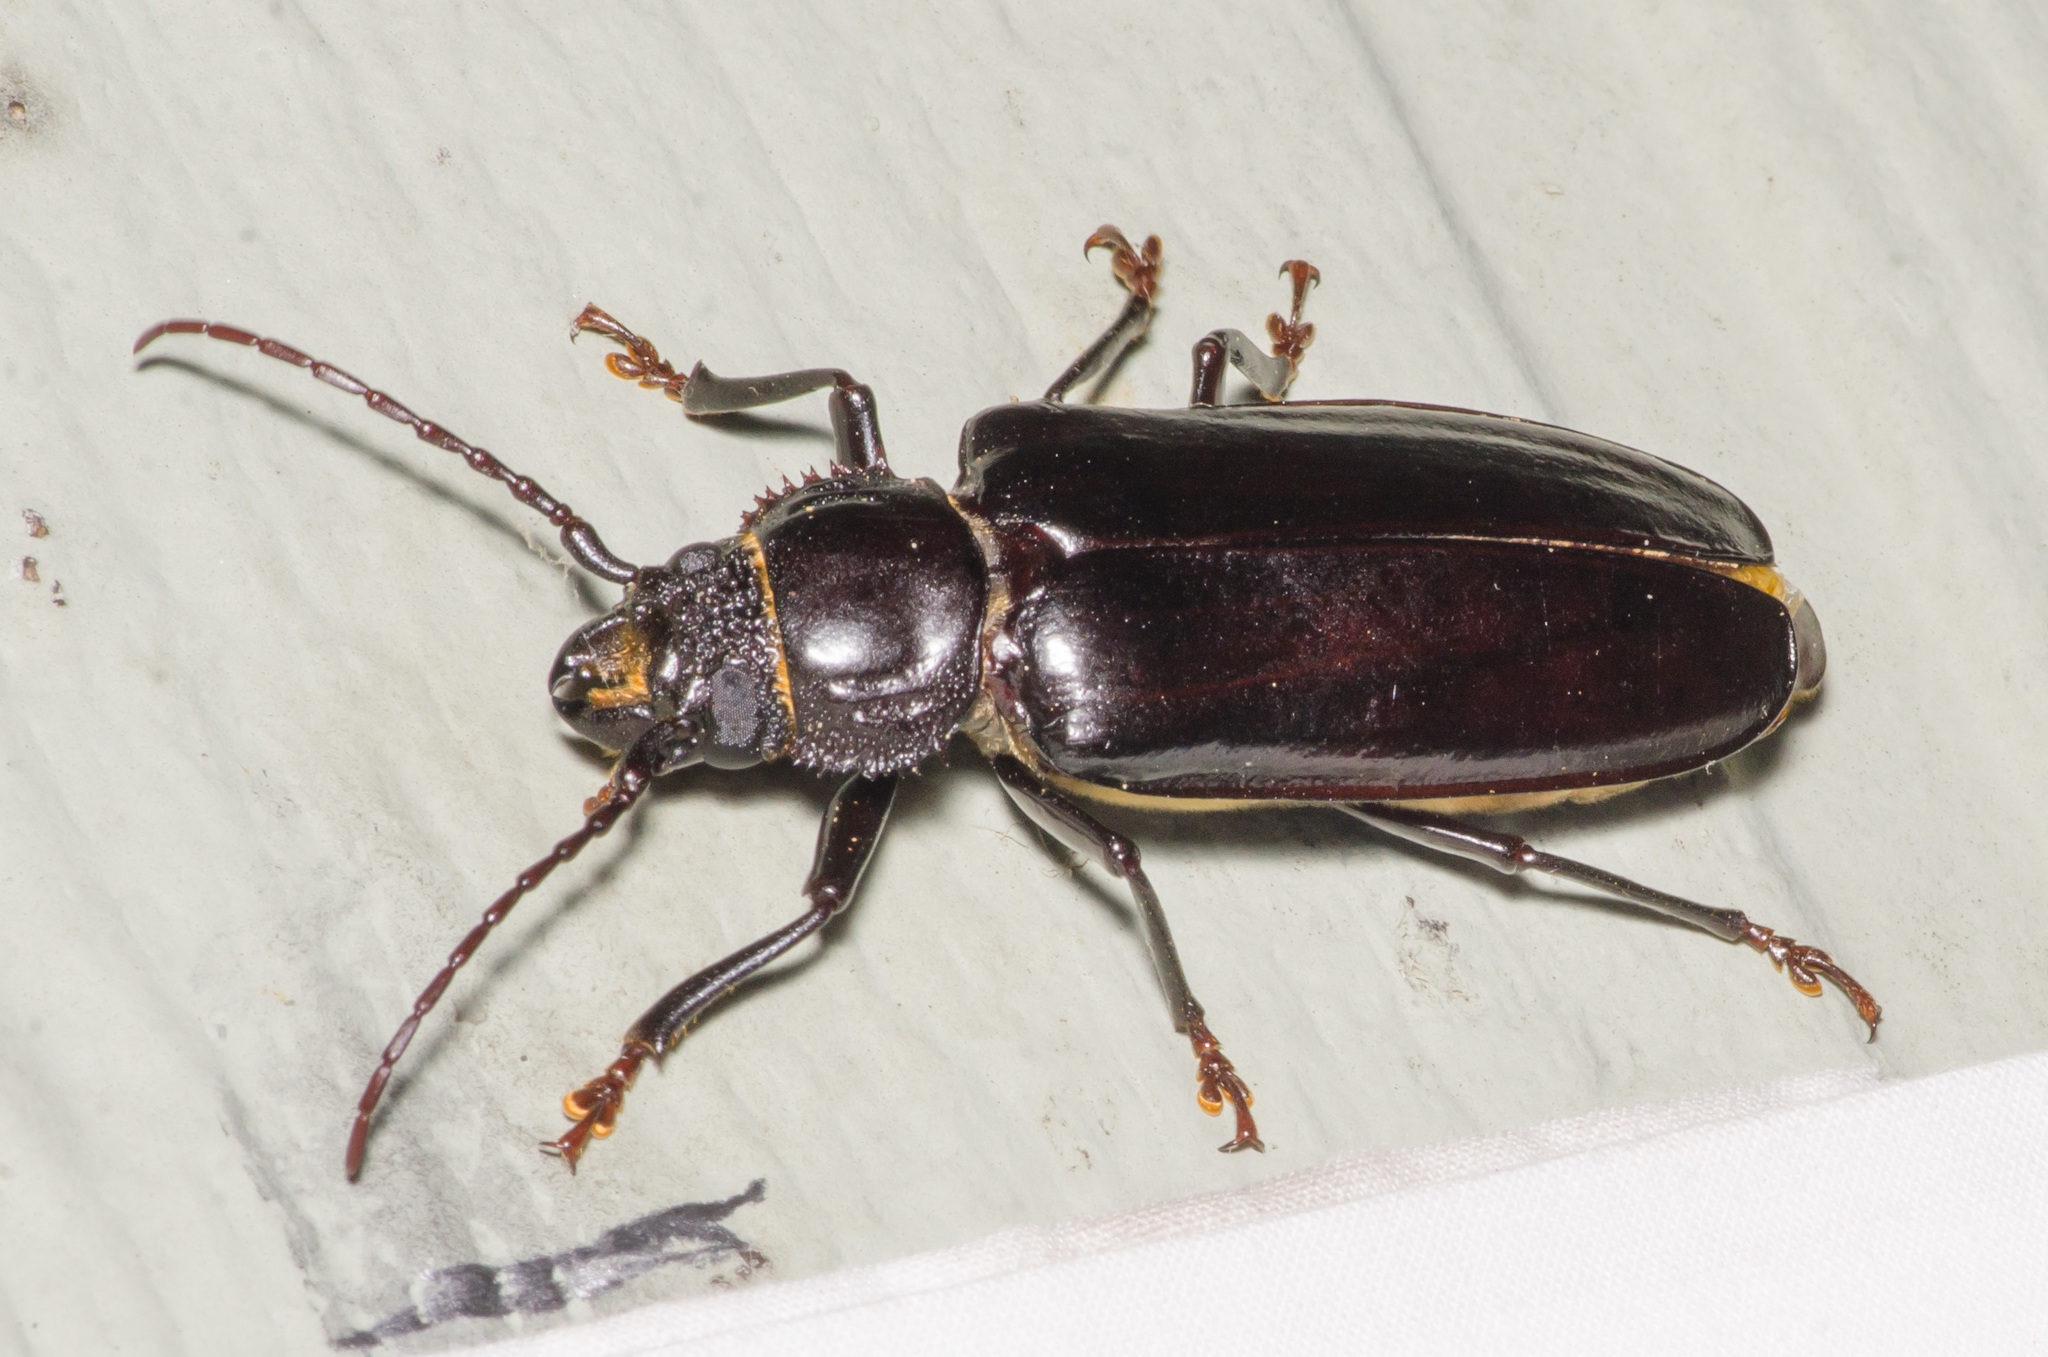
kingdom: Animalia
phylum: Arthropoda
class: Insecta
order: Coleoptera
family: Cerambycidae
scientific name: Cerambycidae
